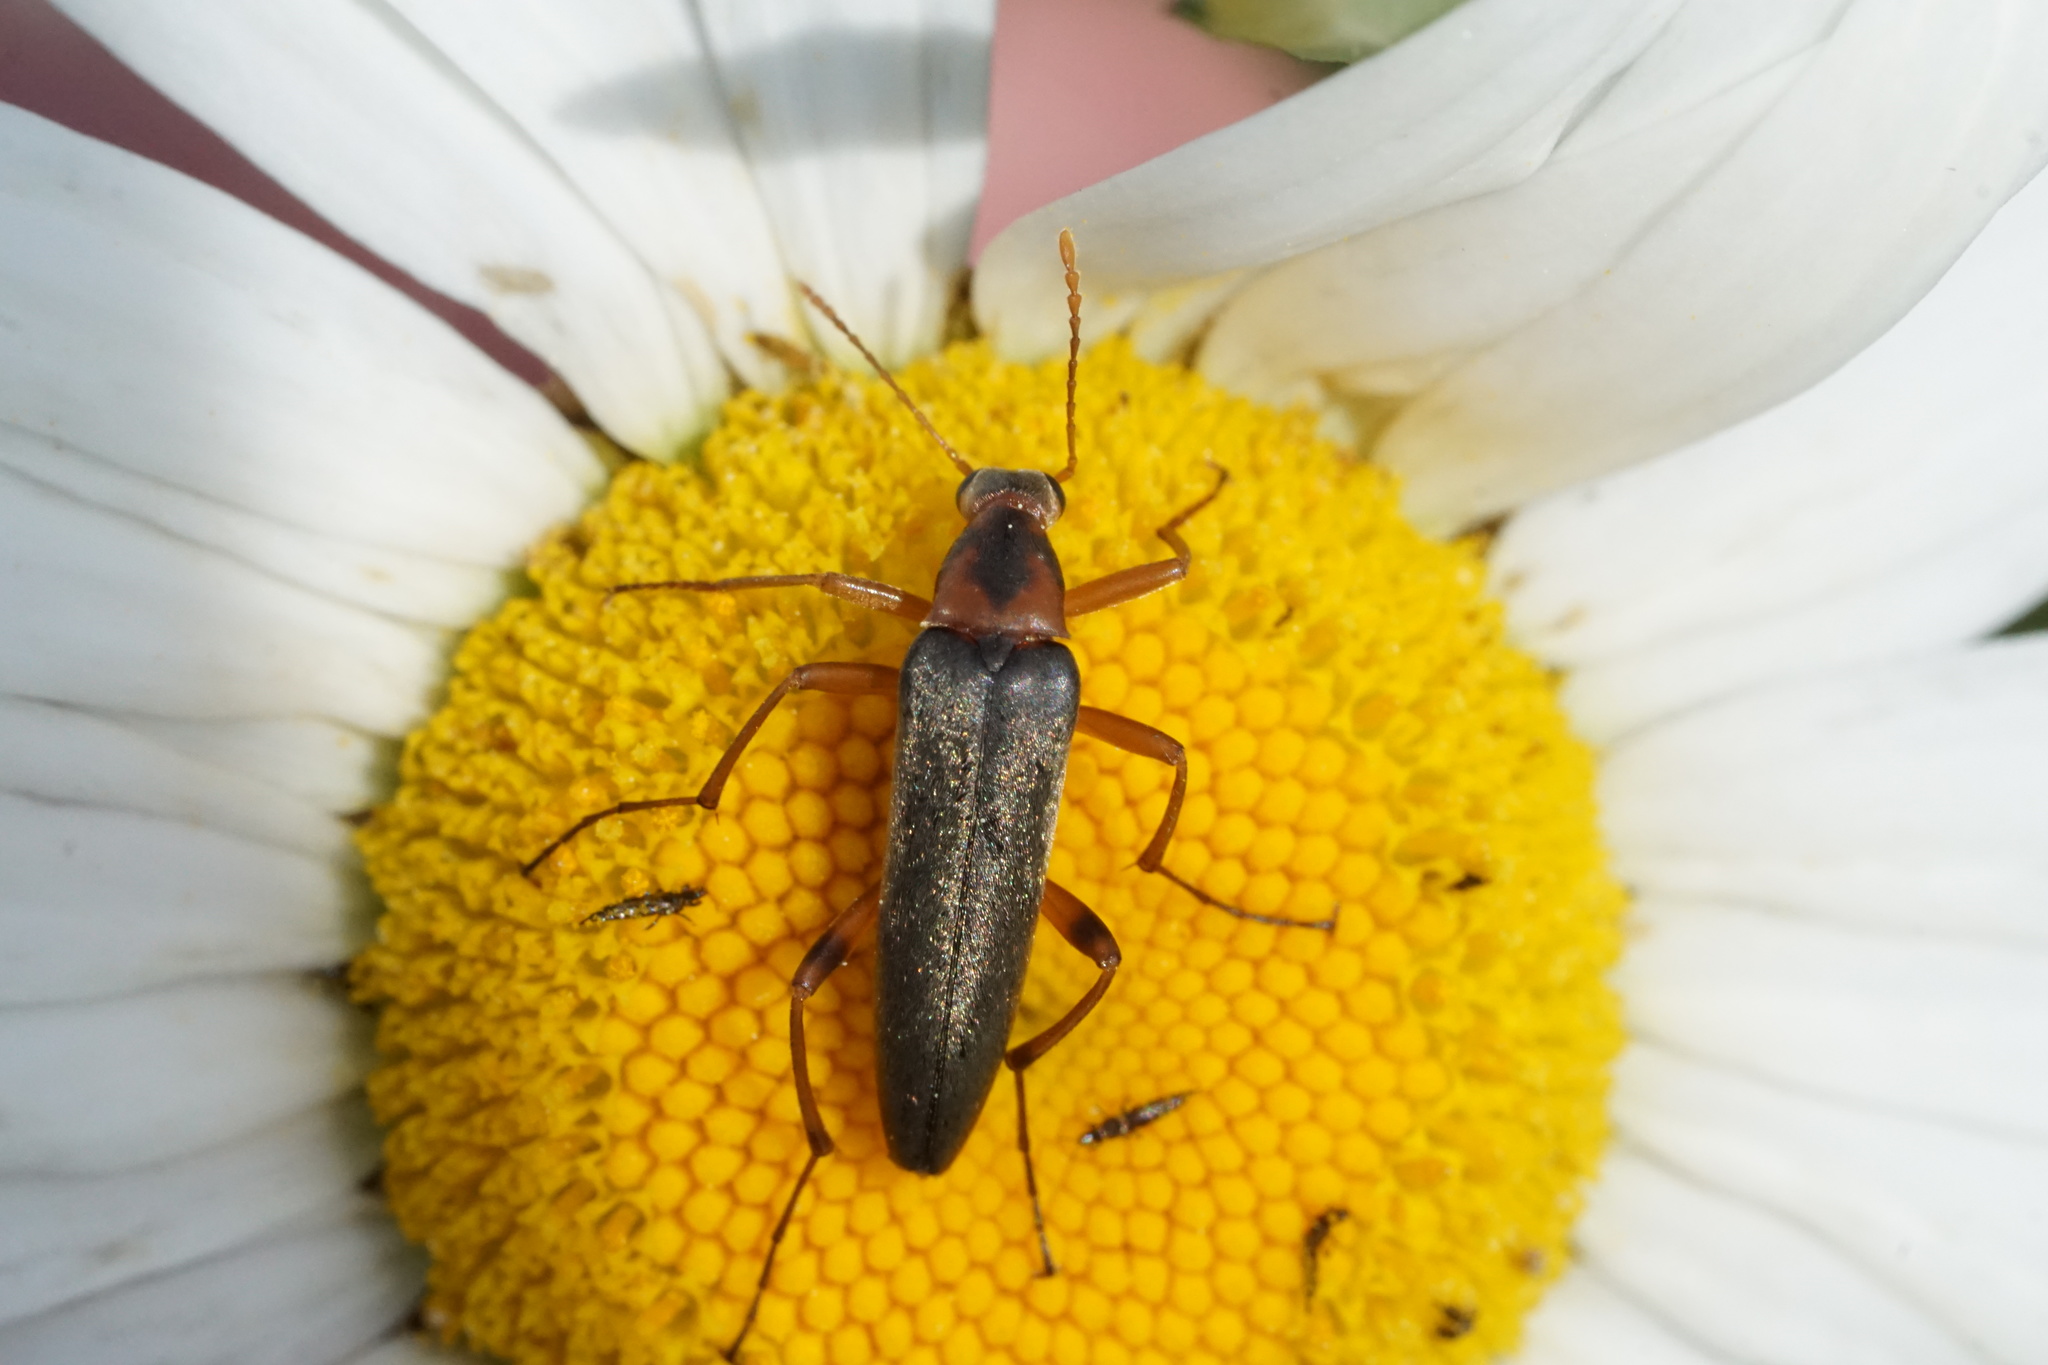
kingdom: Animalia
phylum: Arthropoda
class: Insecta
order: Coleoptera
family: Stenotrachelidae
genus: Cephaloon
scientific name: Cephaloon lepturides
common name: False leptura beetle
